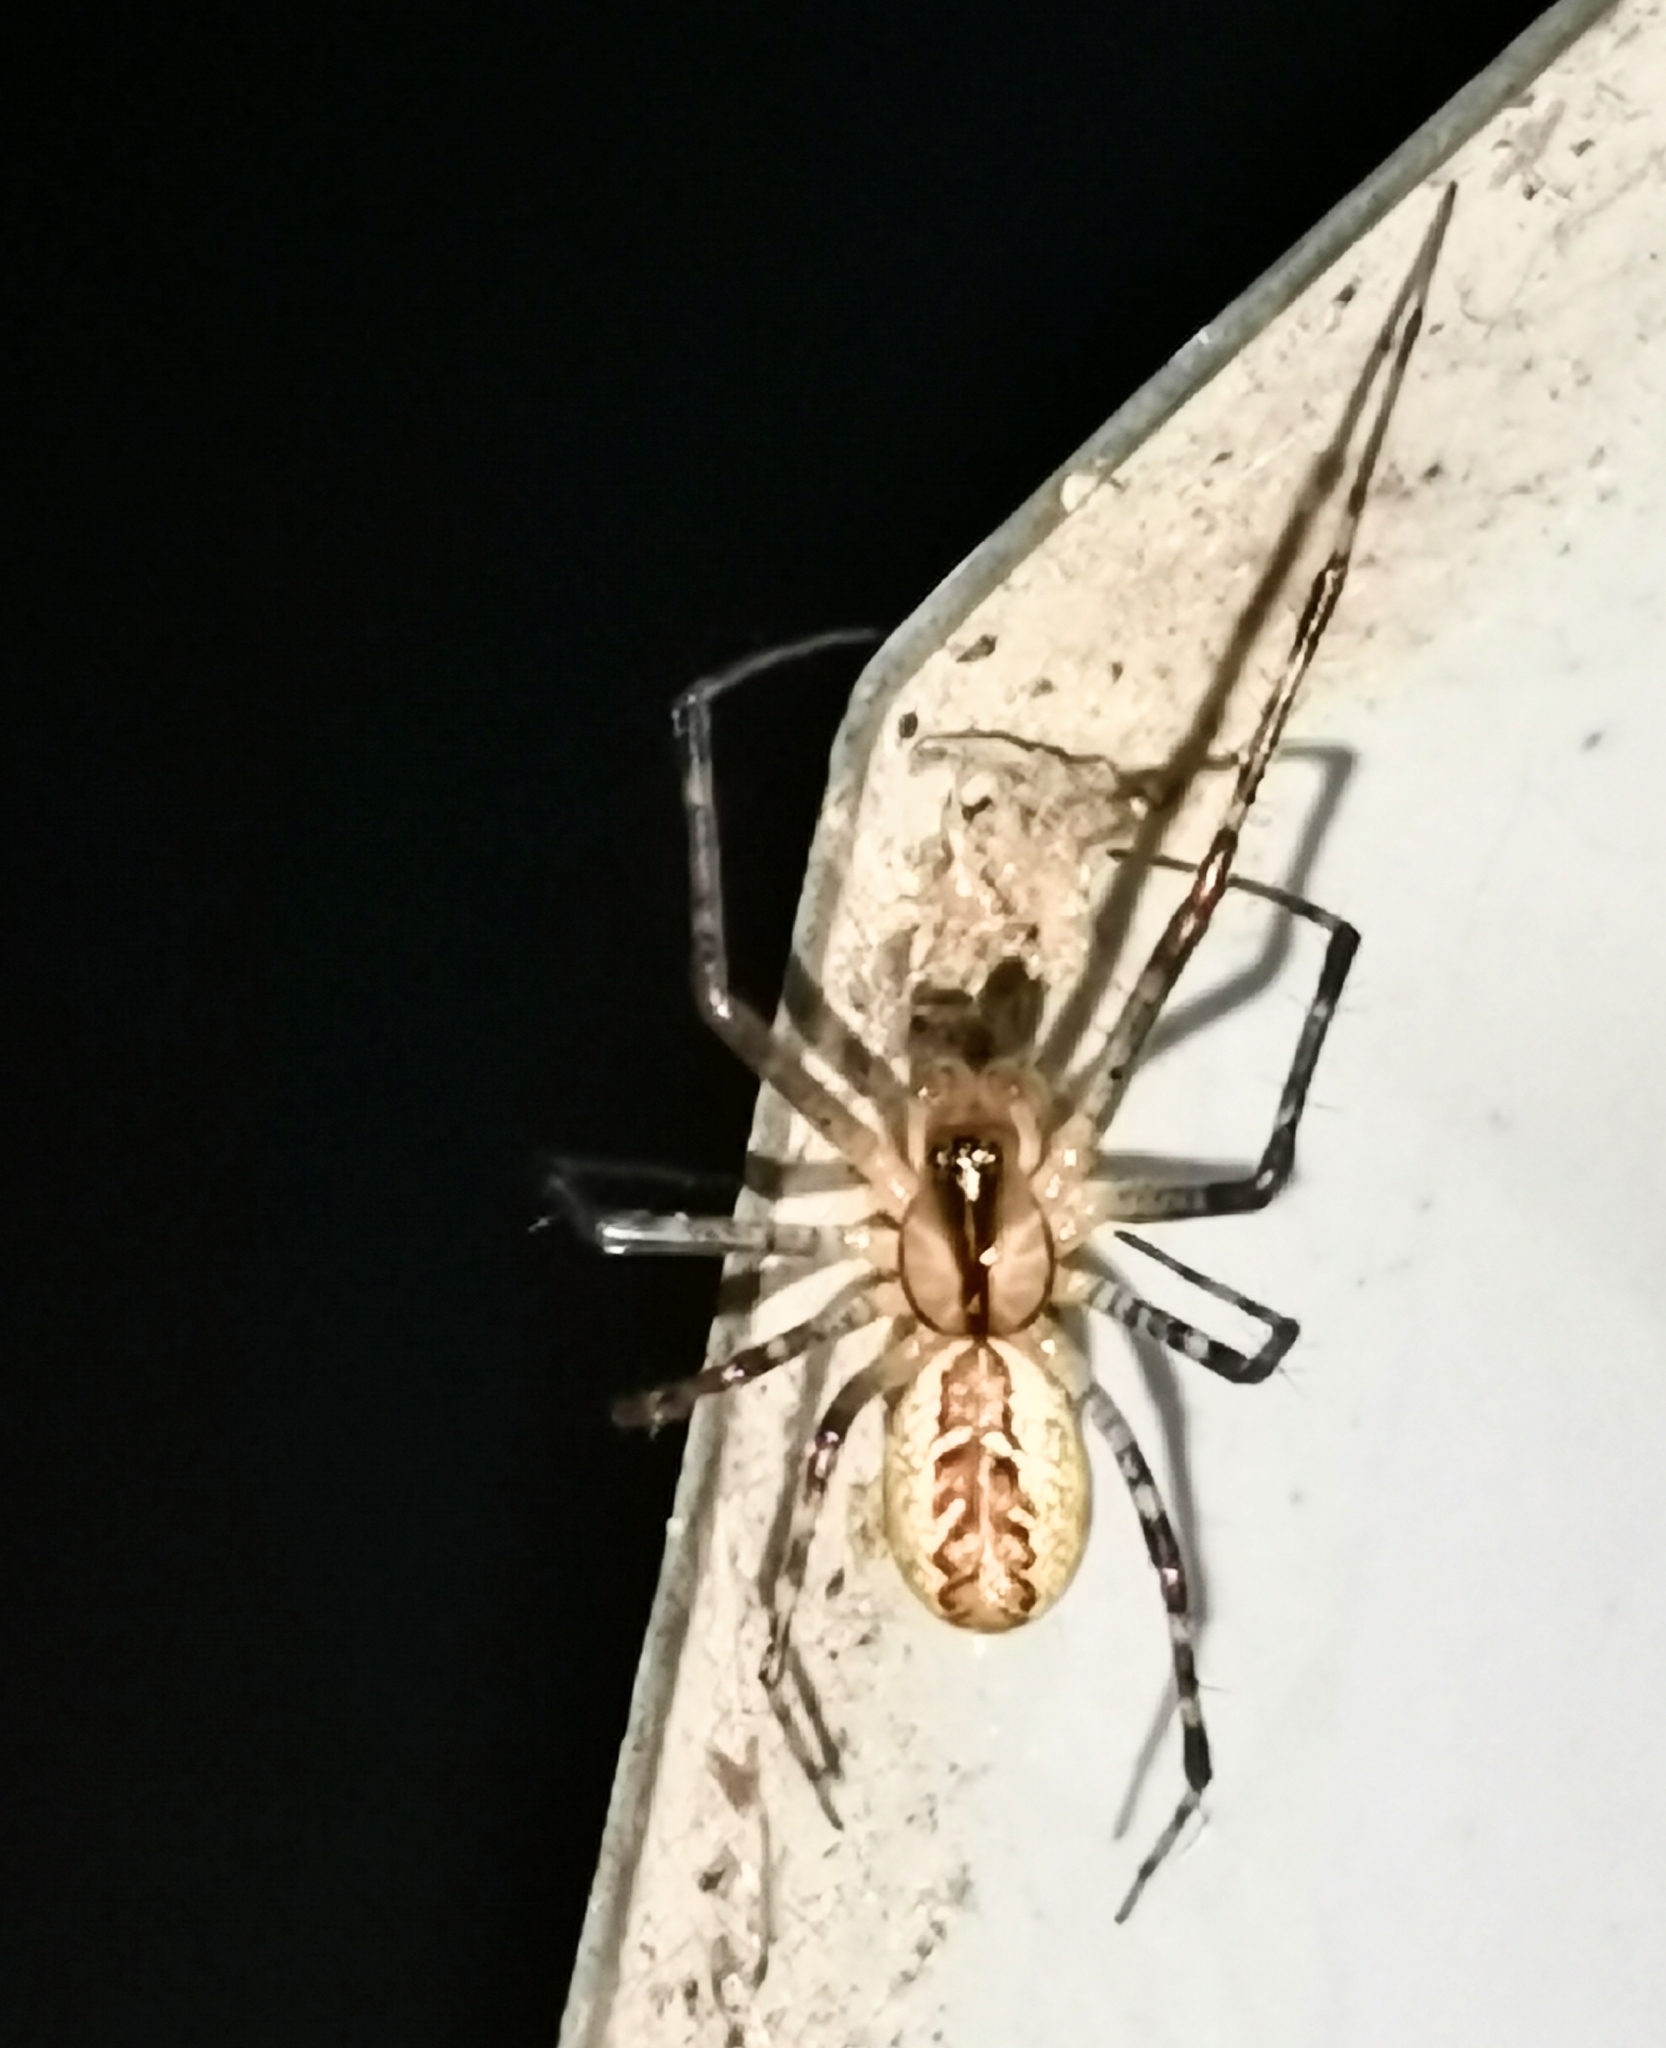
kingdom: Animalia
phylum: Arthropoda
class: Arachnida
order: Araneae
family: Linyphiidae
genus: Pityohyphantes
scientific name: Pityohyphantes phrygianus
